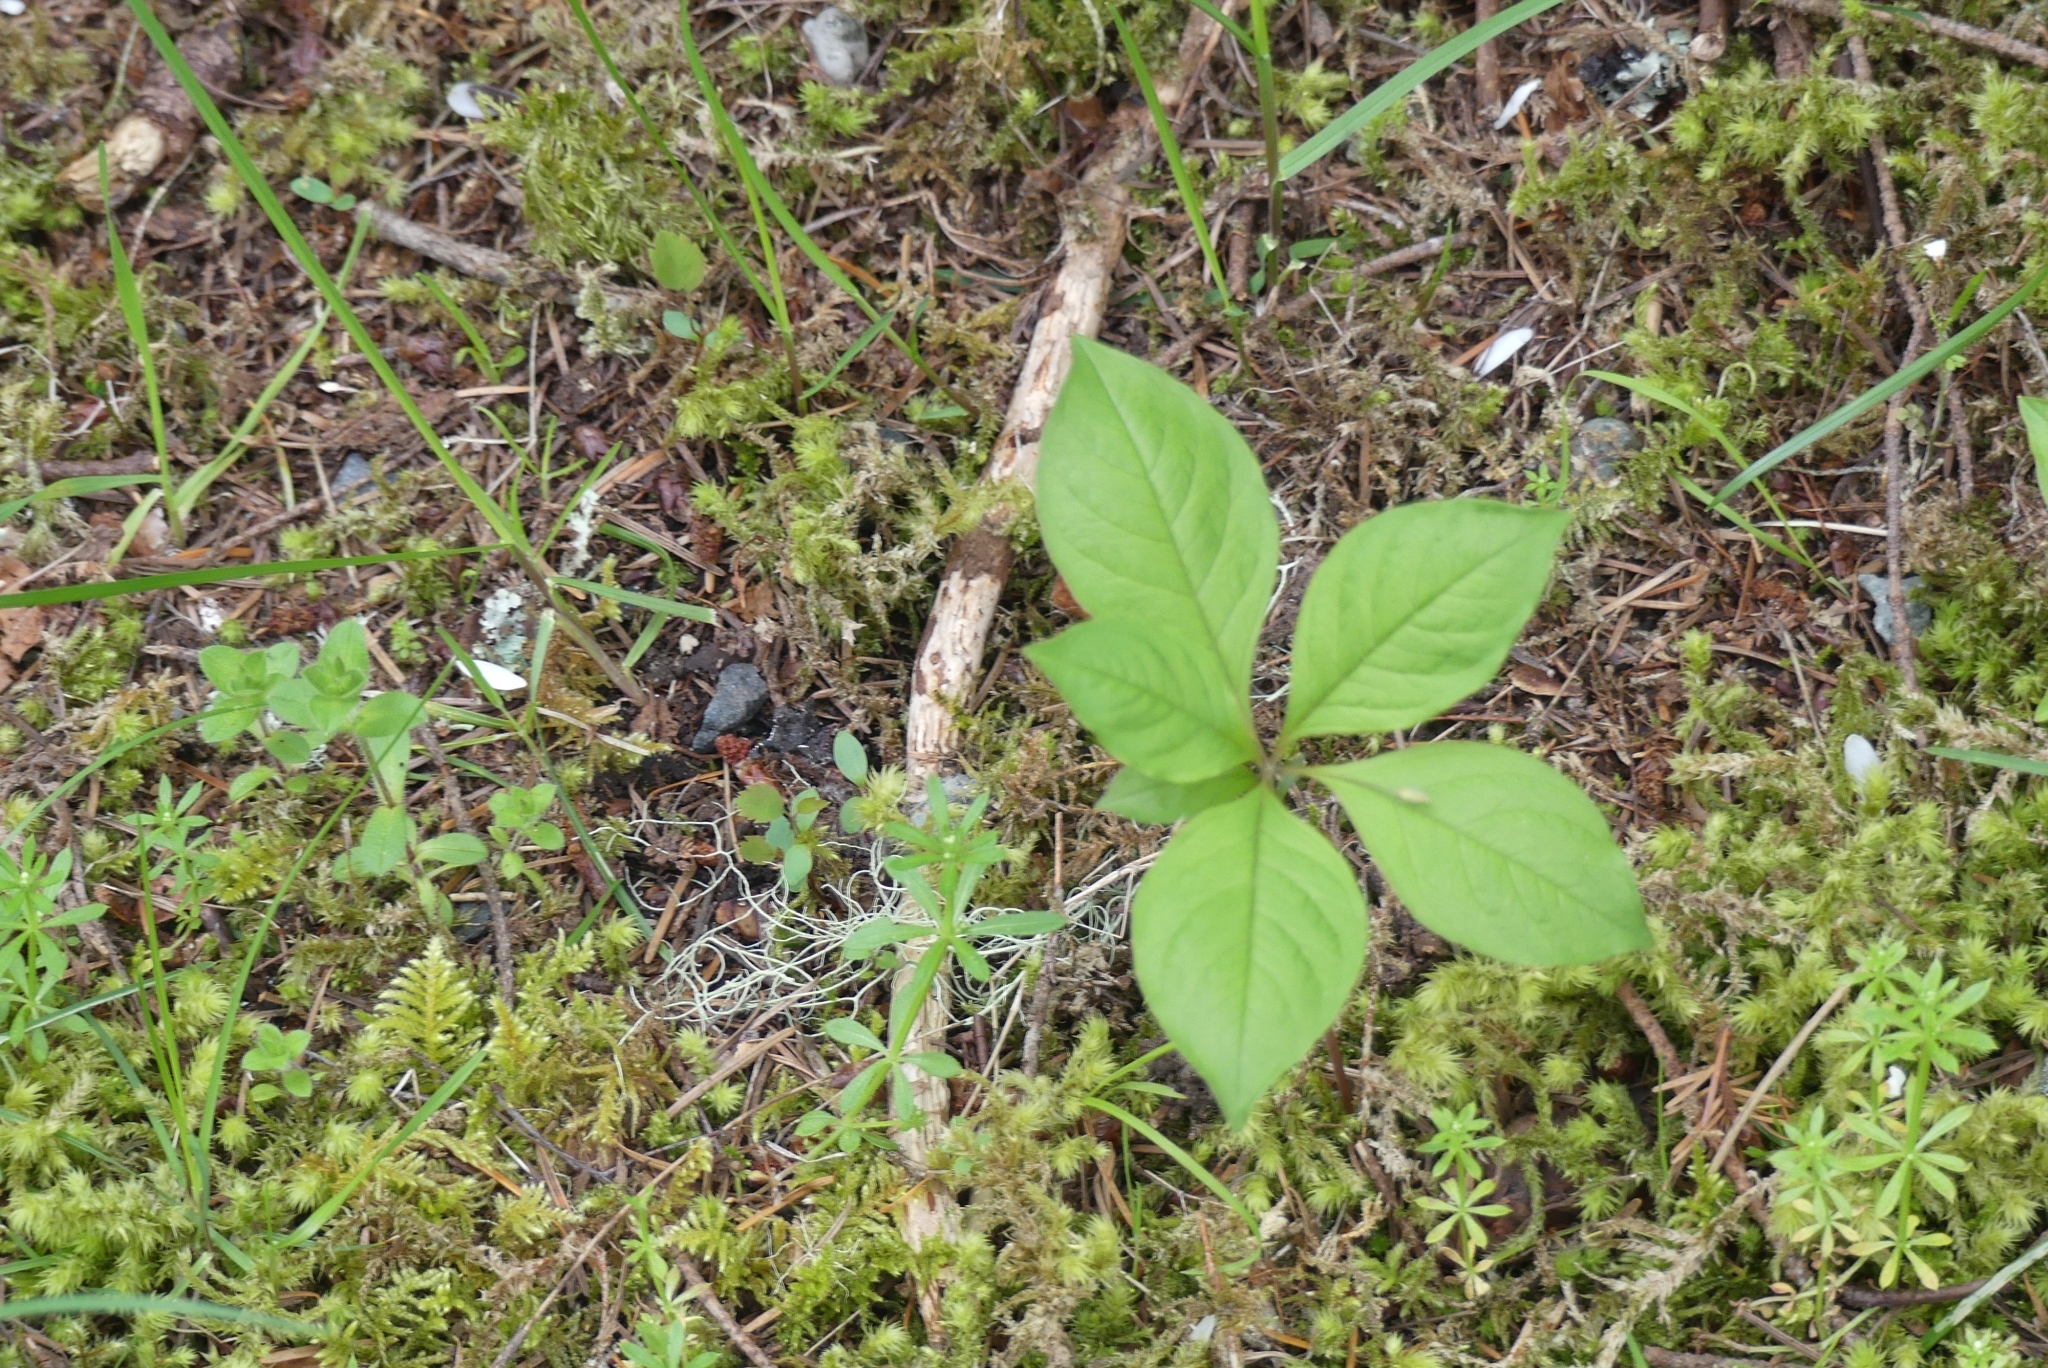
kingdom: Plantae
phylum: Tracheophyta
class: Magnoliopsida
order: Ericales
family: Primulaceae
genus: Lysimachia
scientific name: Lysimachia latifolia
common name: Pacific starflower
